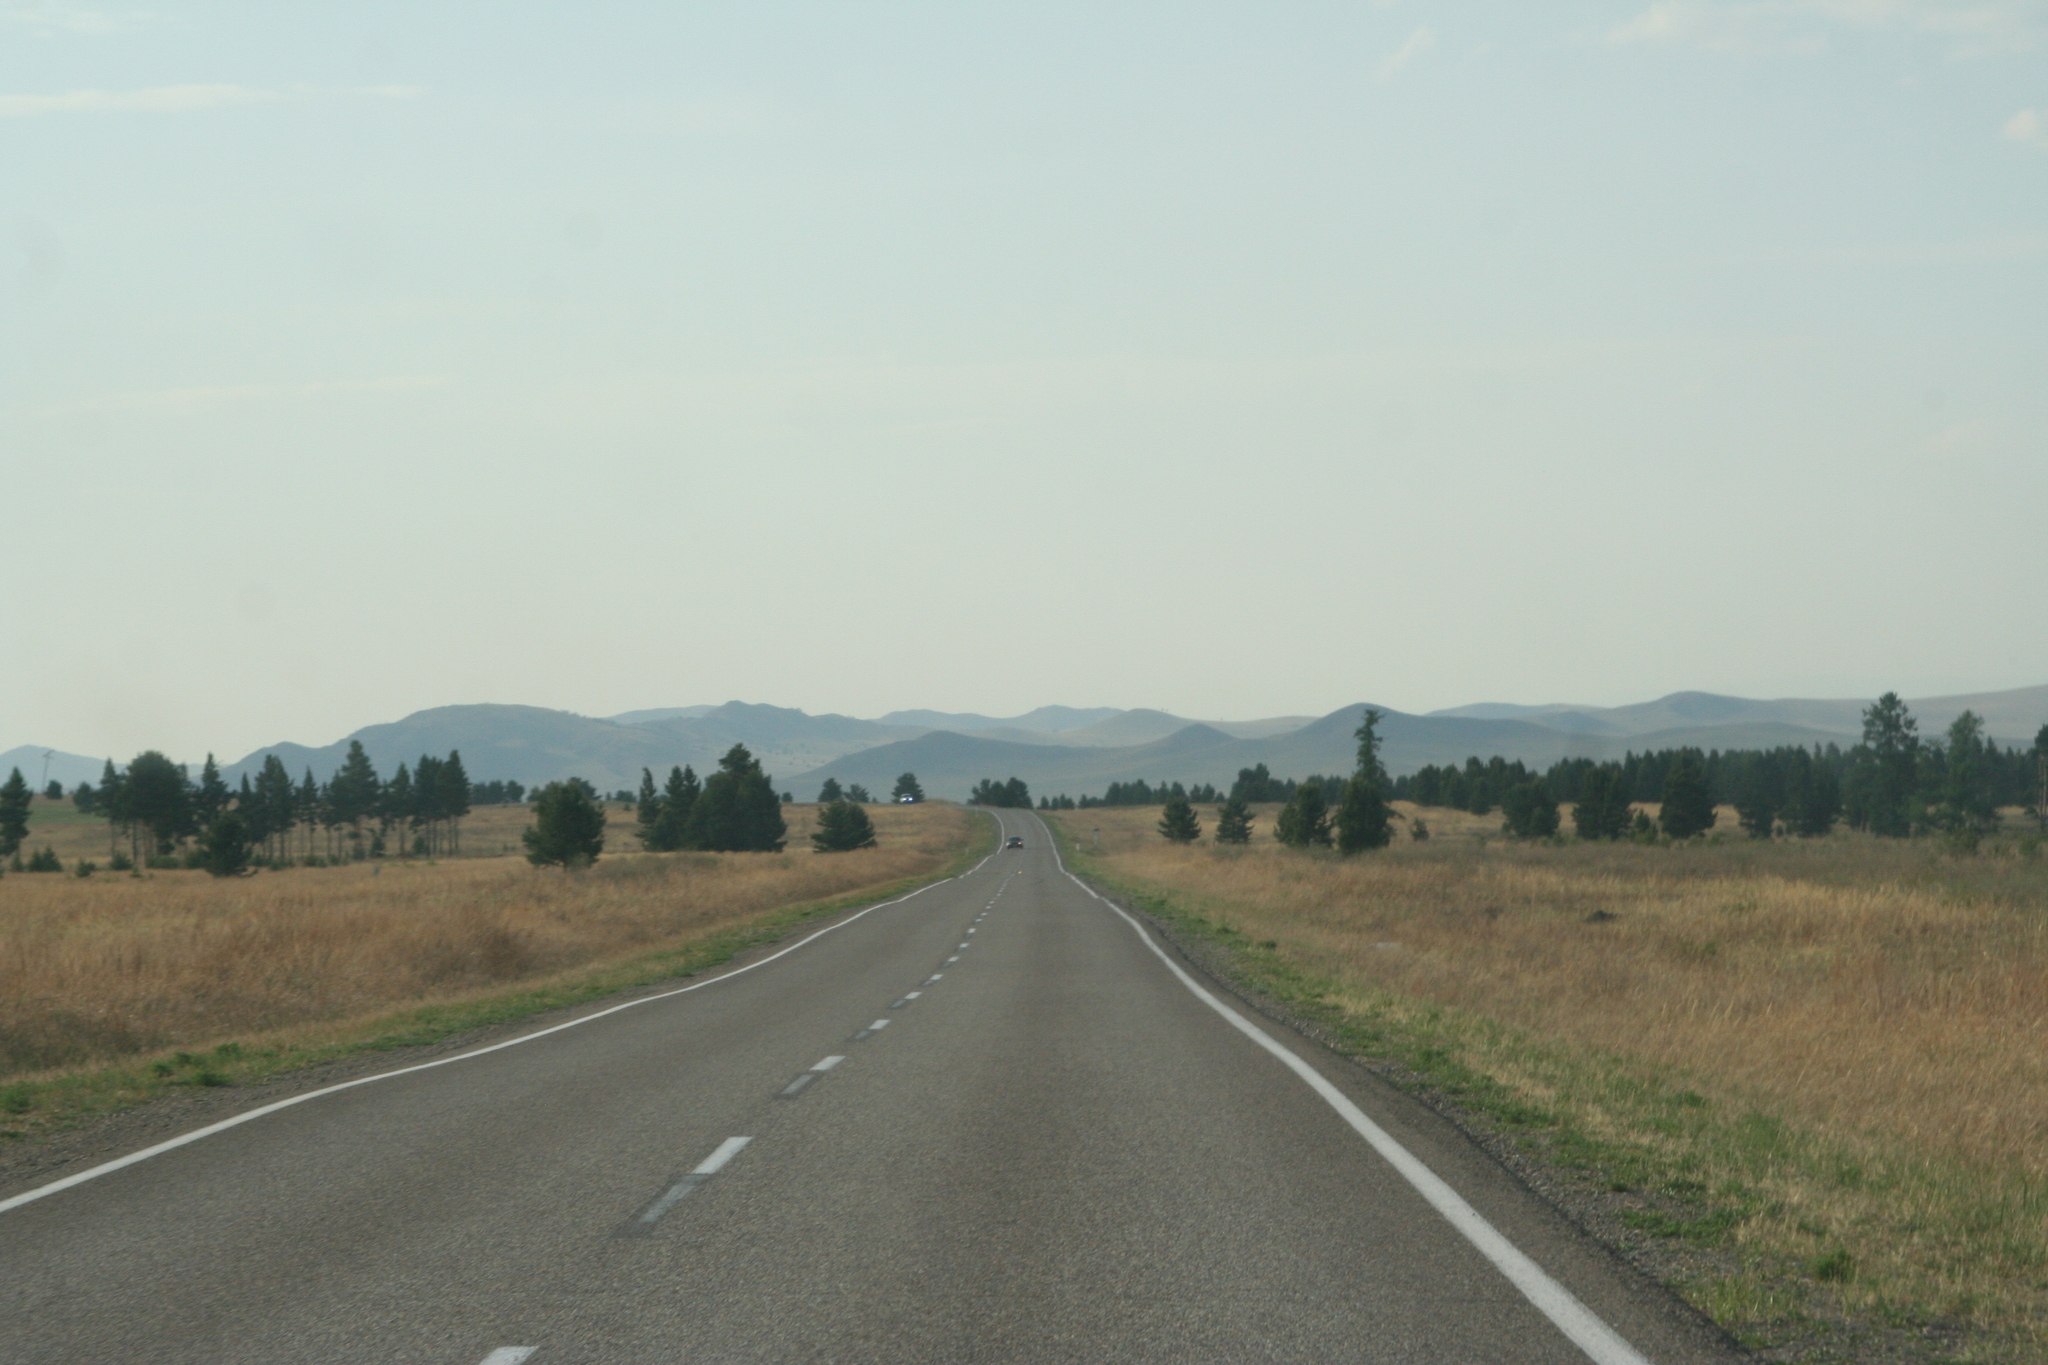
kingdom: Plantae
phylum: Tracheophyta
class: Pinopsida
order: Pinales
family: Pinaceae
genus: Pinus
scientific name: Pinus sylvestris
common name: Scots pine
